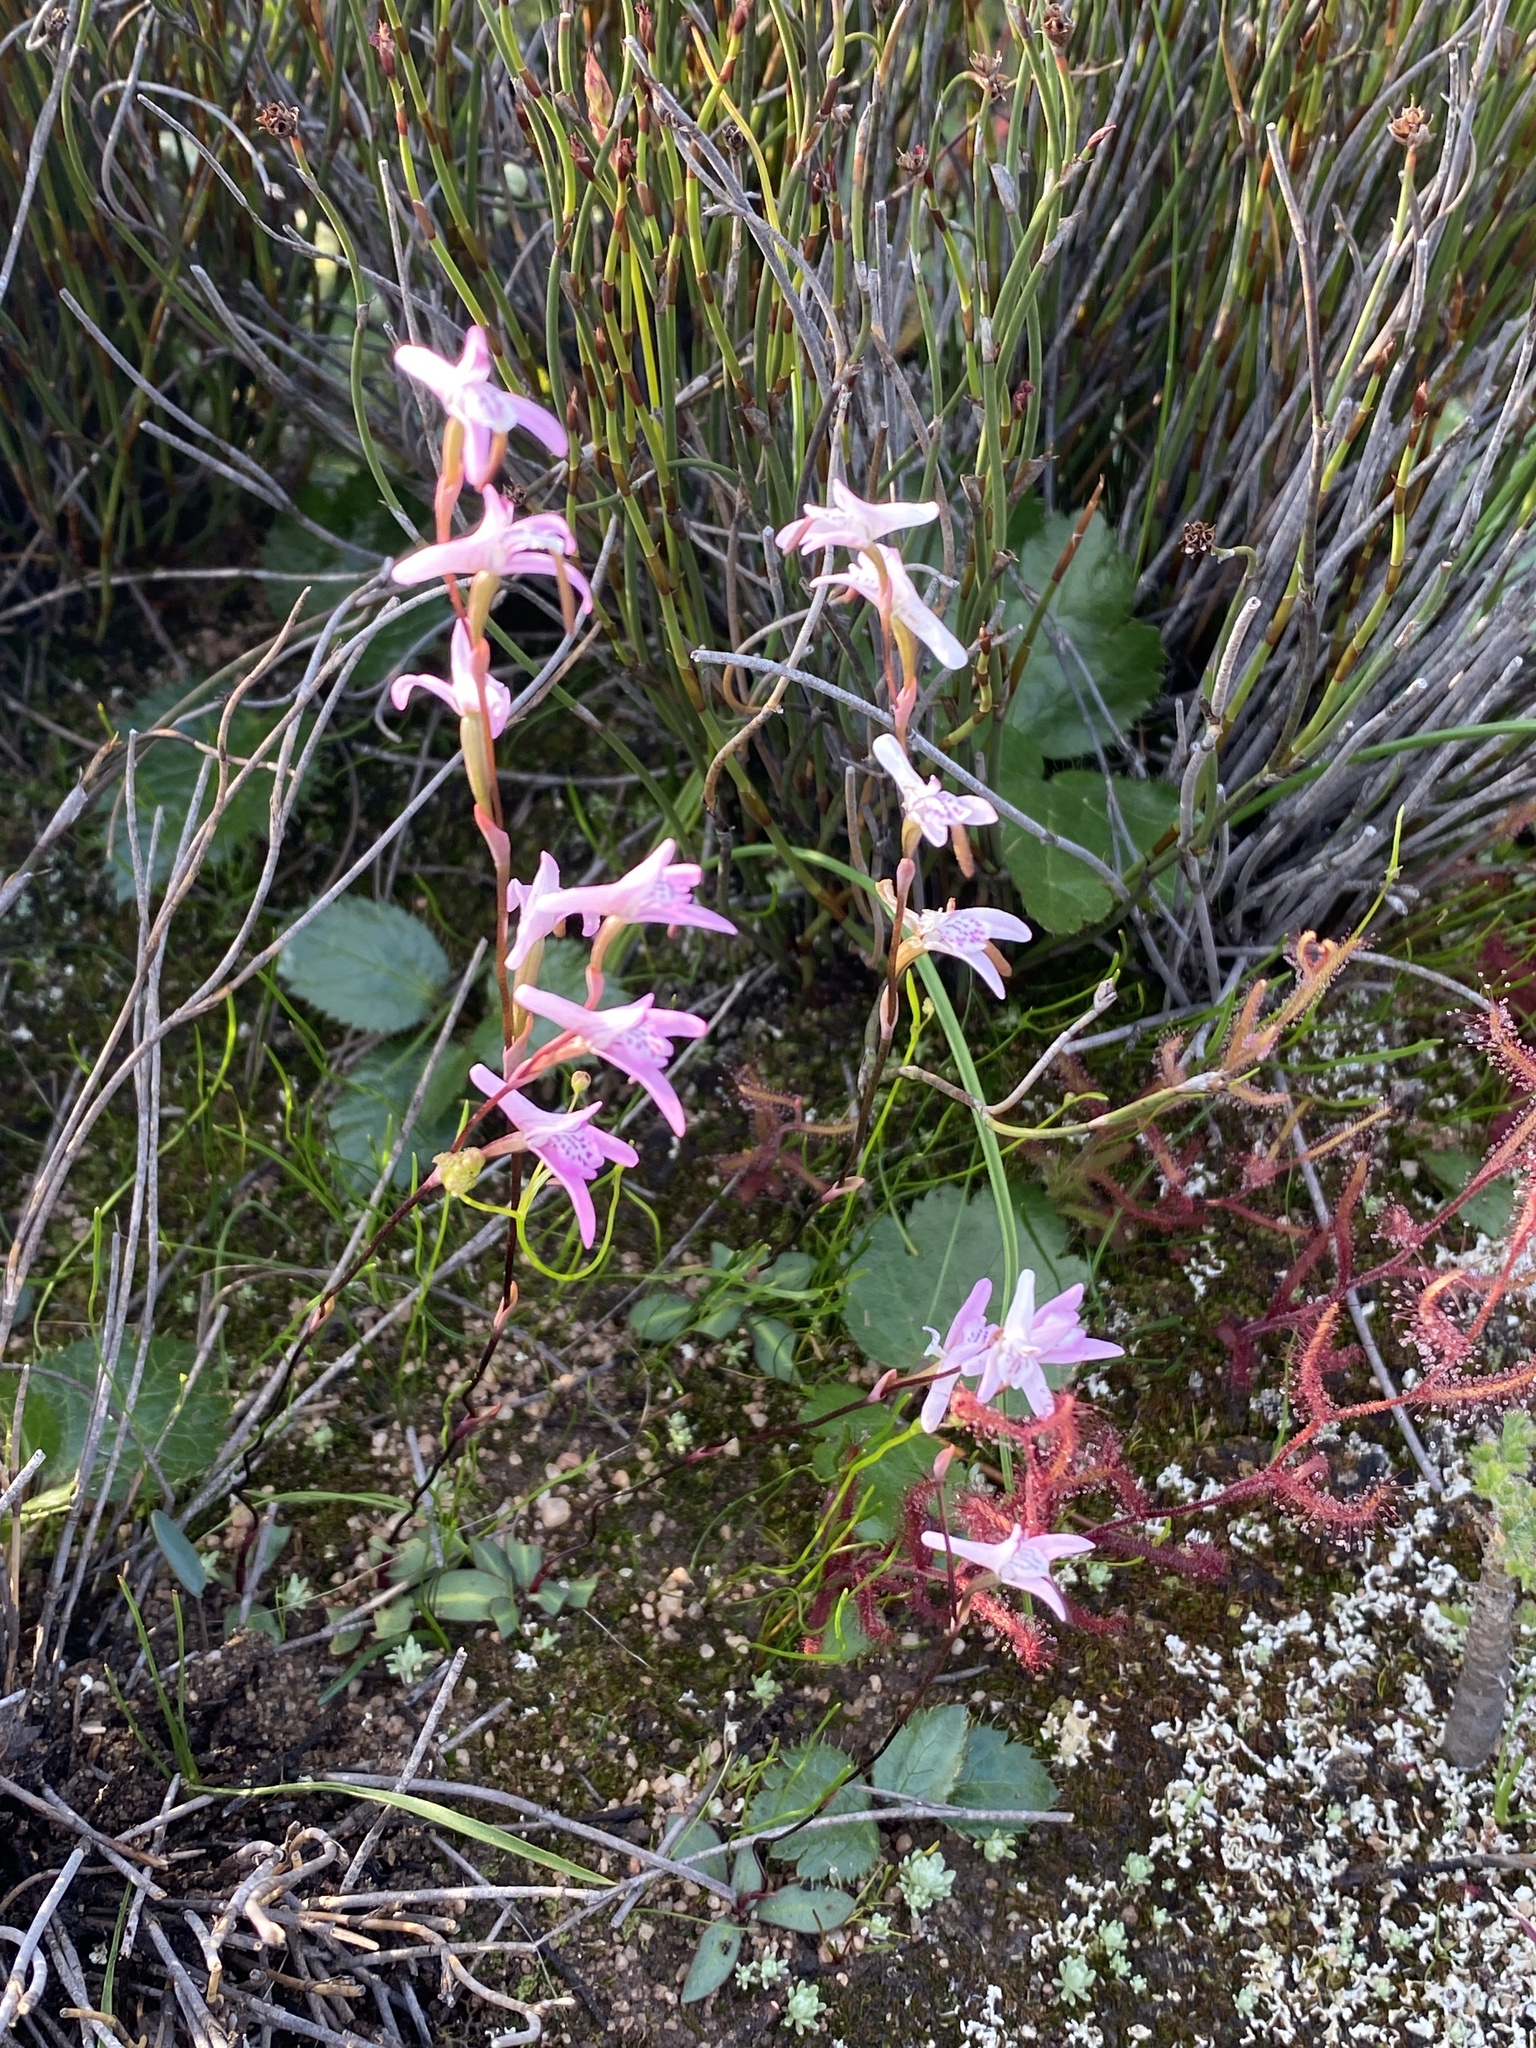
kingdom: Plantae
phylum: Tracheophyta
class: Liliopsida
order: Asparagales
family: Orchidaceae
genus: Disa
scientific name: Disa inflexa
